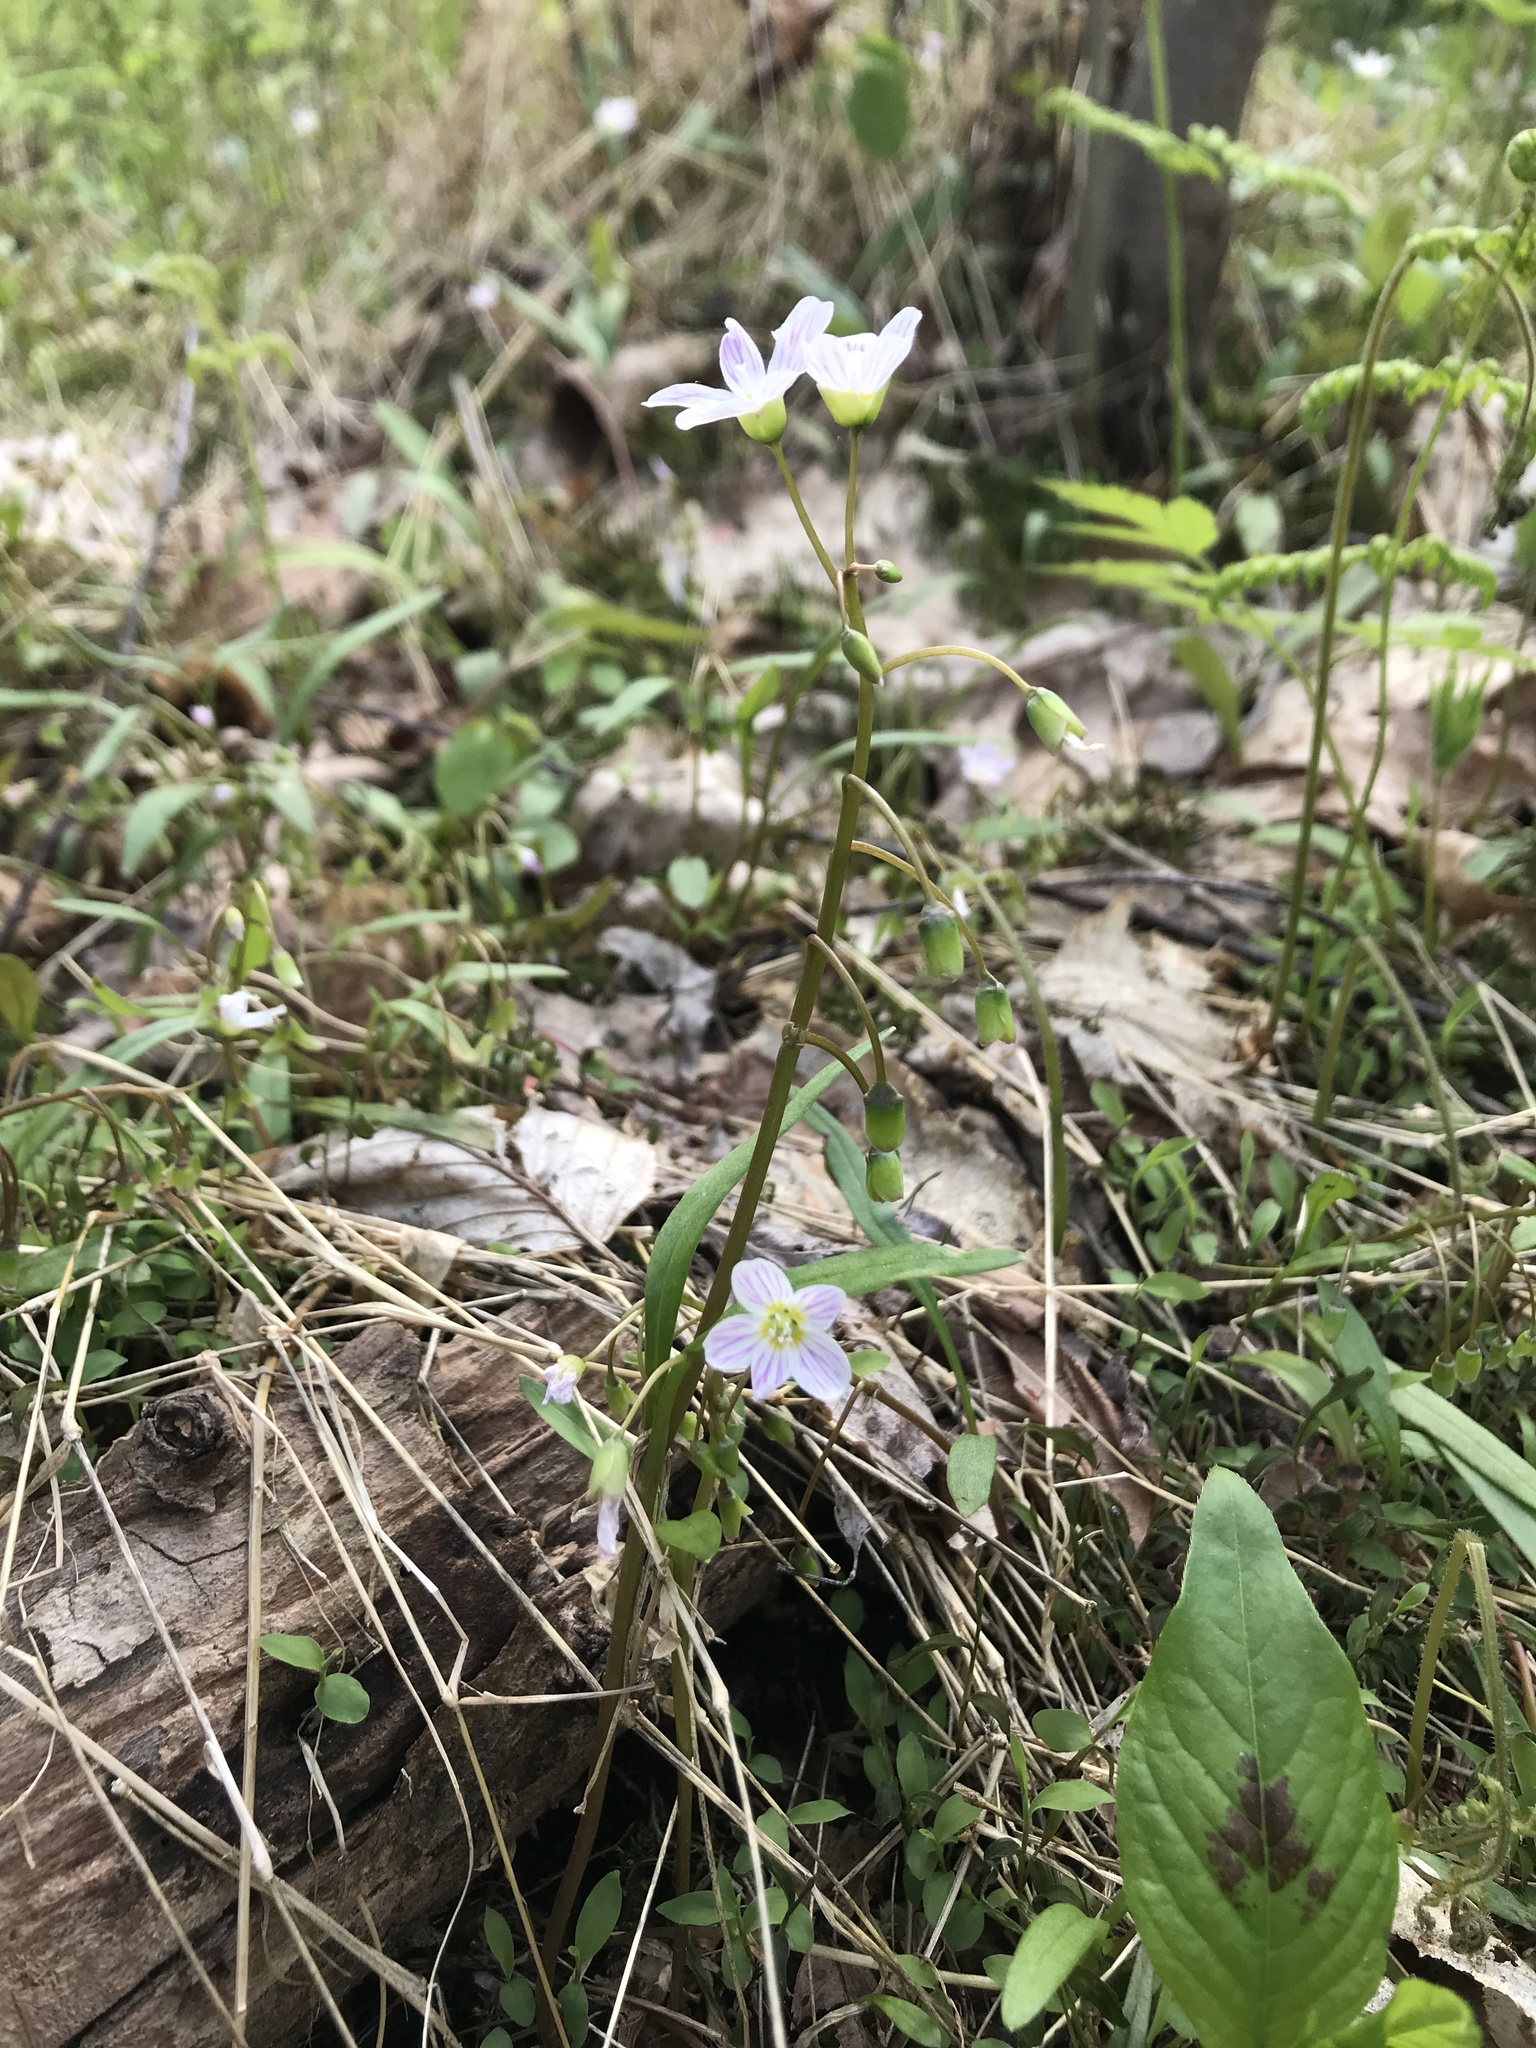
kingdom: Plantae
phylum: Tracheophyta
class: Magnoliopsida
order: Caryophyllales
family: Montiaceae
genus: Claytonia
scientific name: Claytonia virginica
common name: Virginia springbeauty
